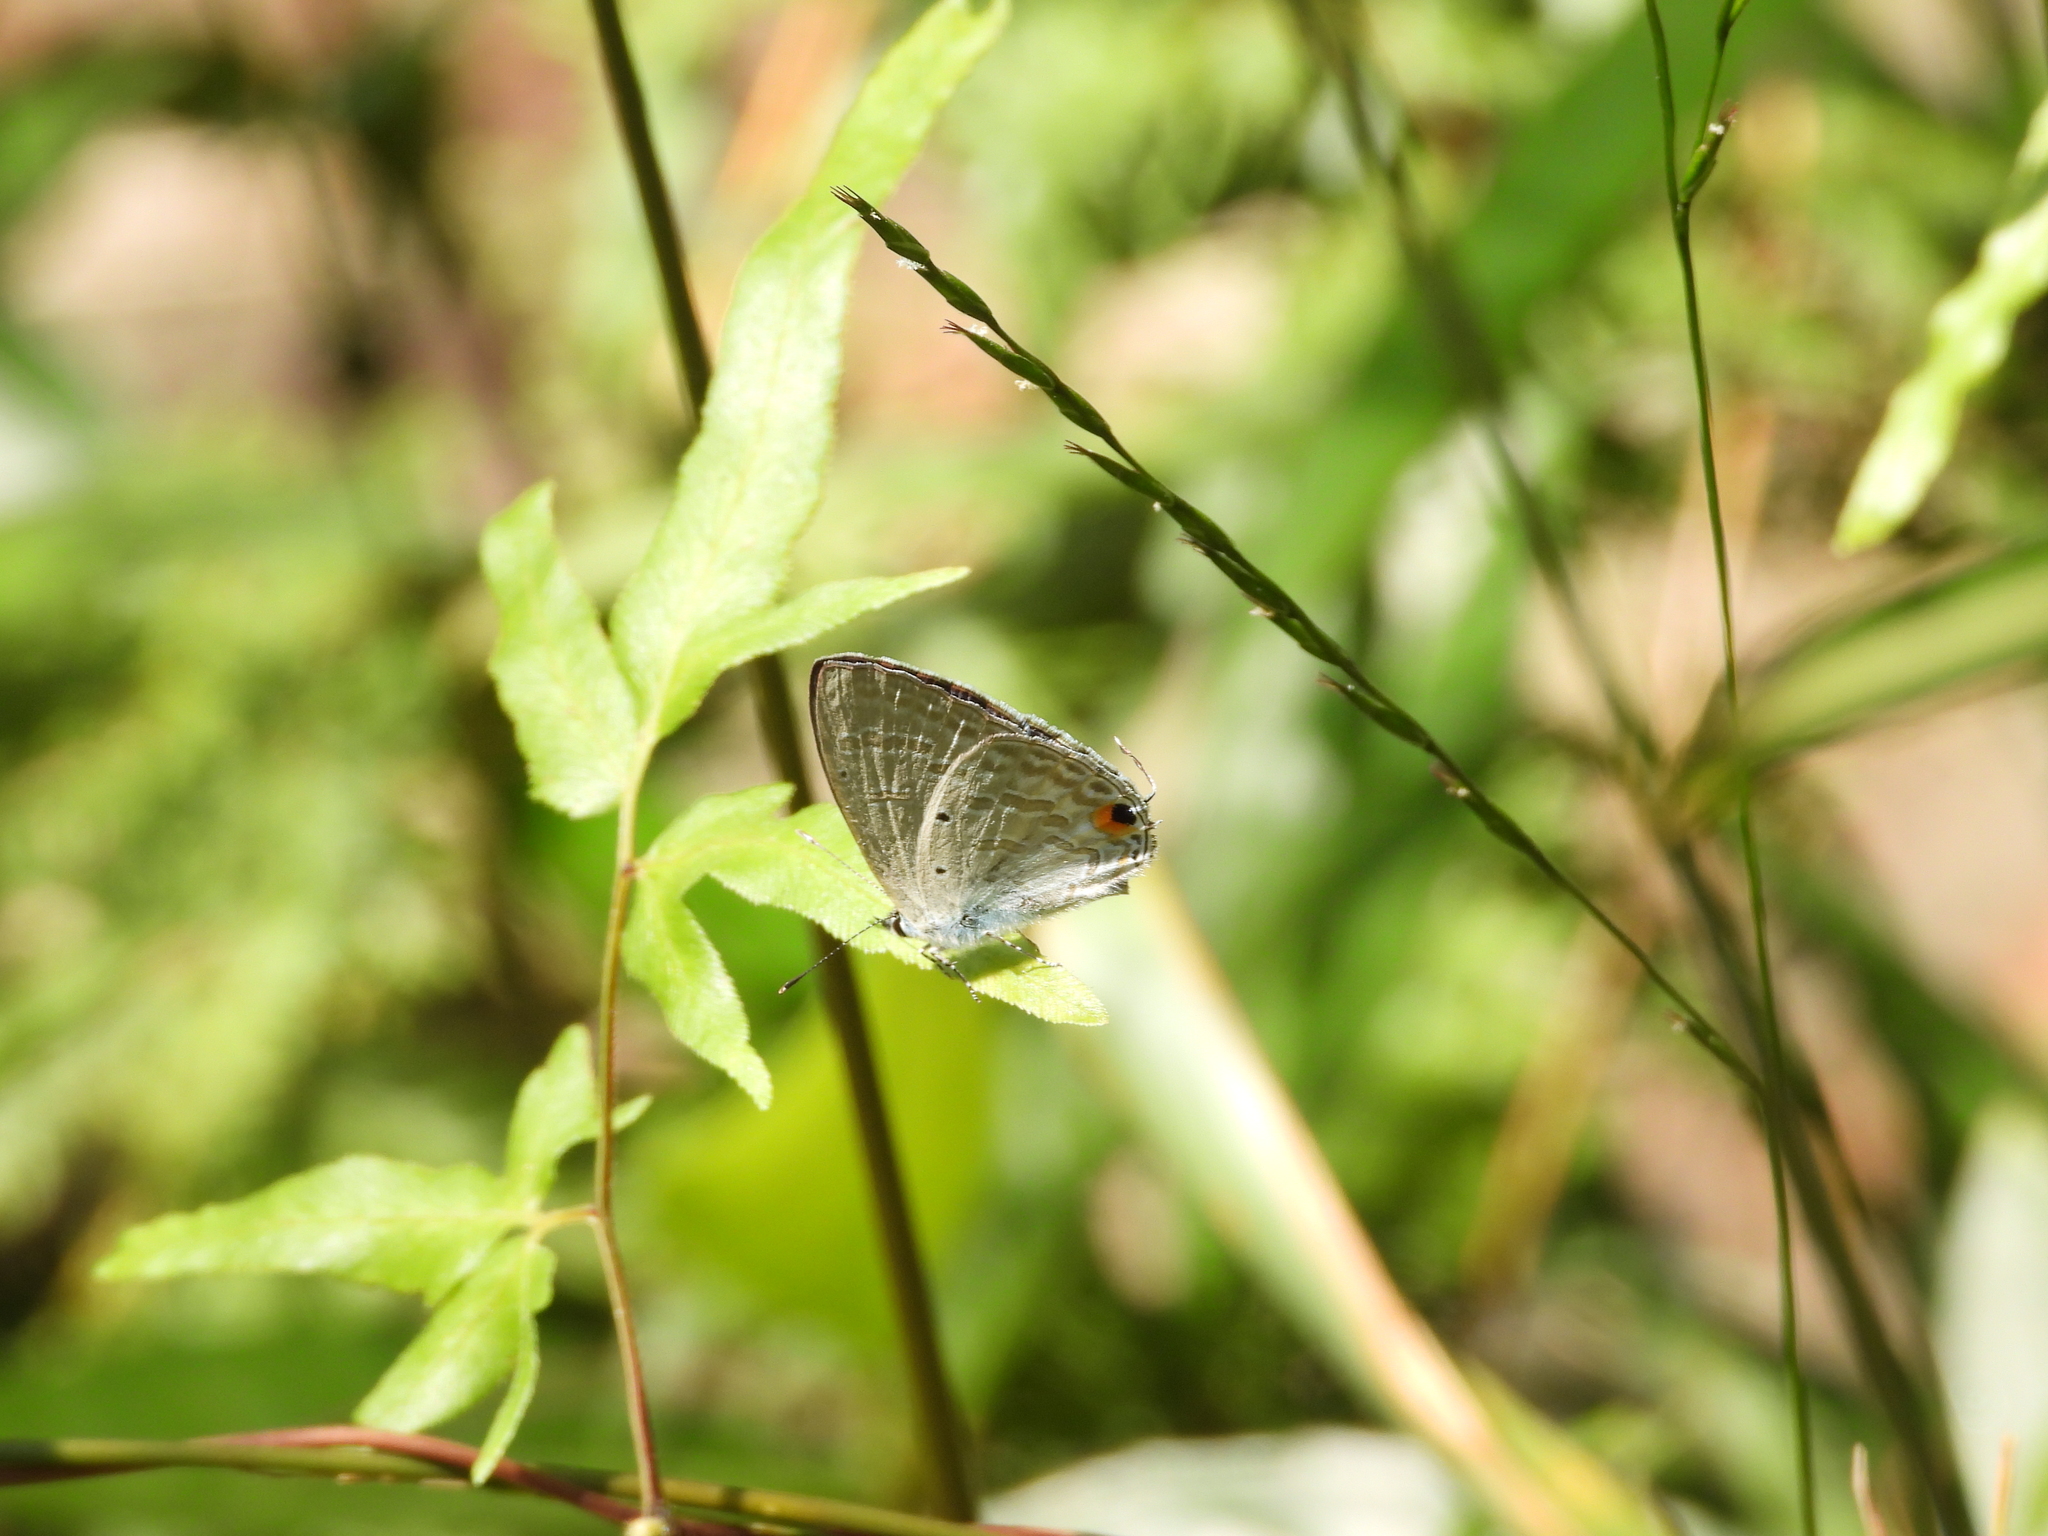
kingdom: Animalia
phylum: Arthropoda
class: Insecta
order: Lepidoptera
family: Lycaenidae
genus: Catochrysops
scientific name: Catochrysops strabo
